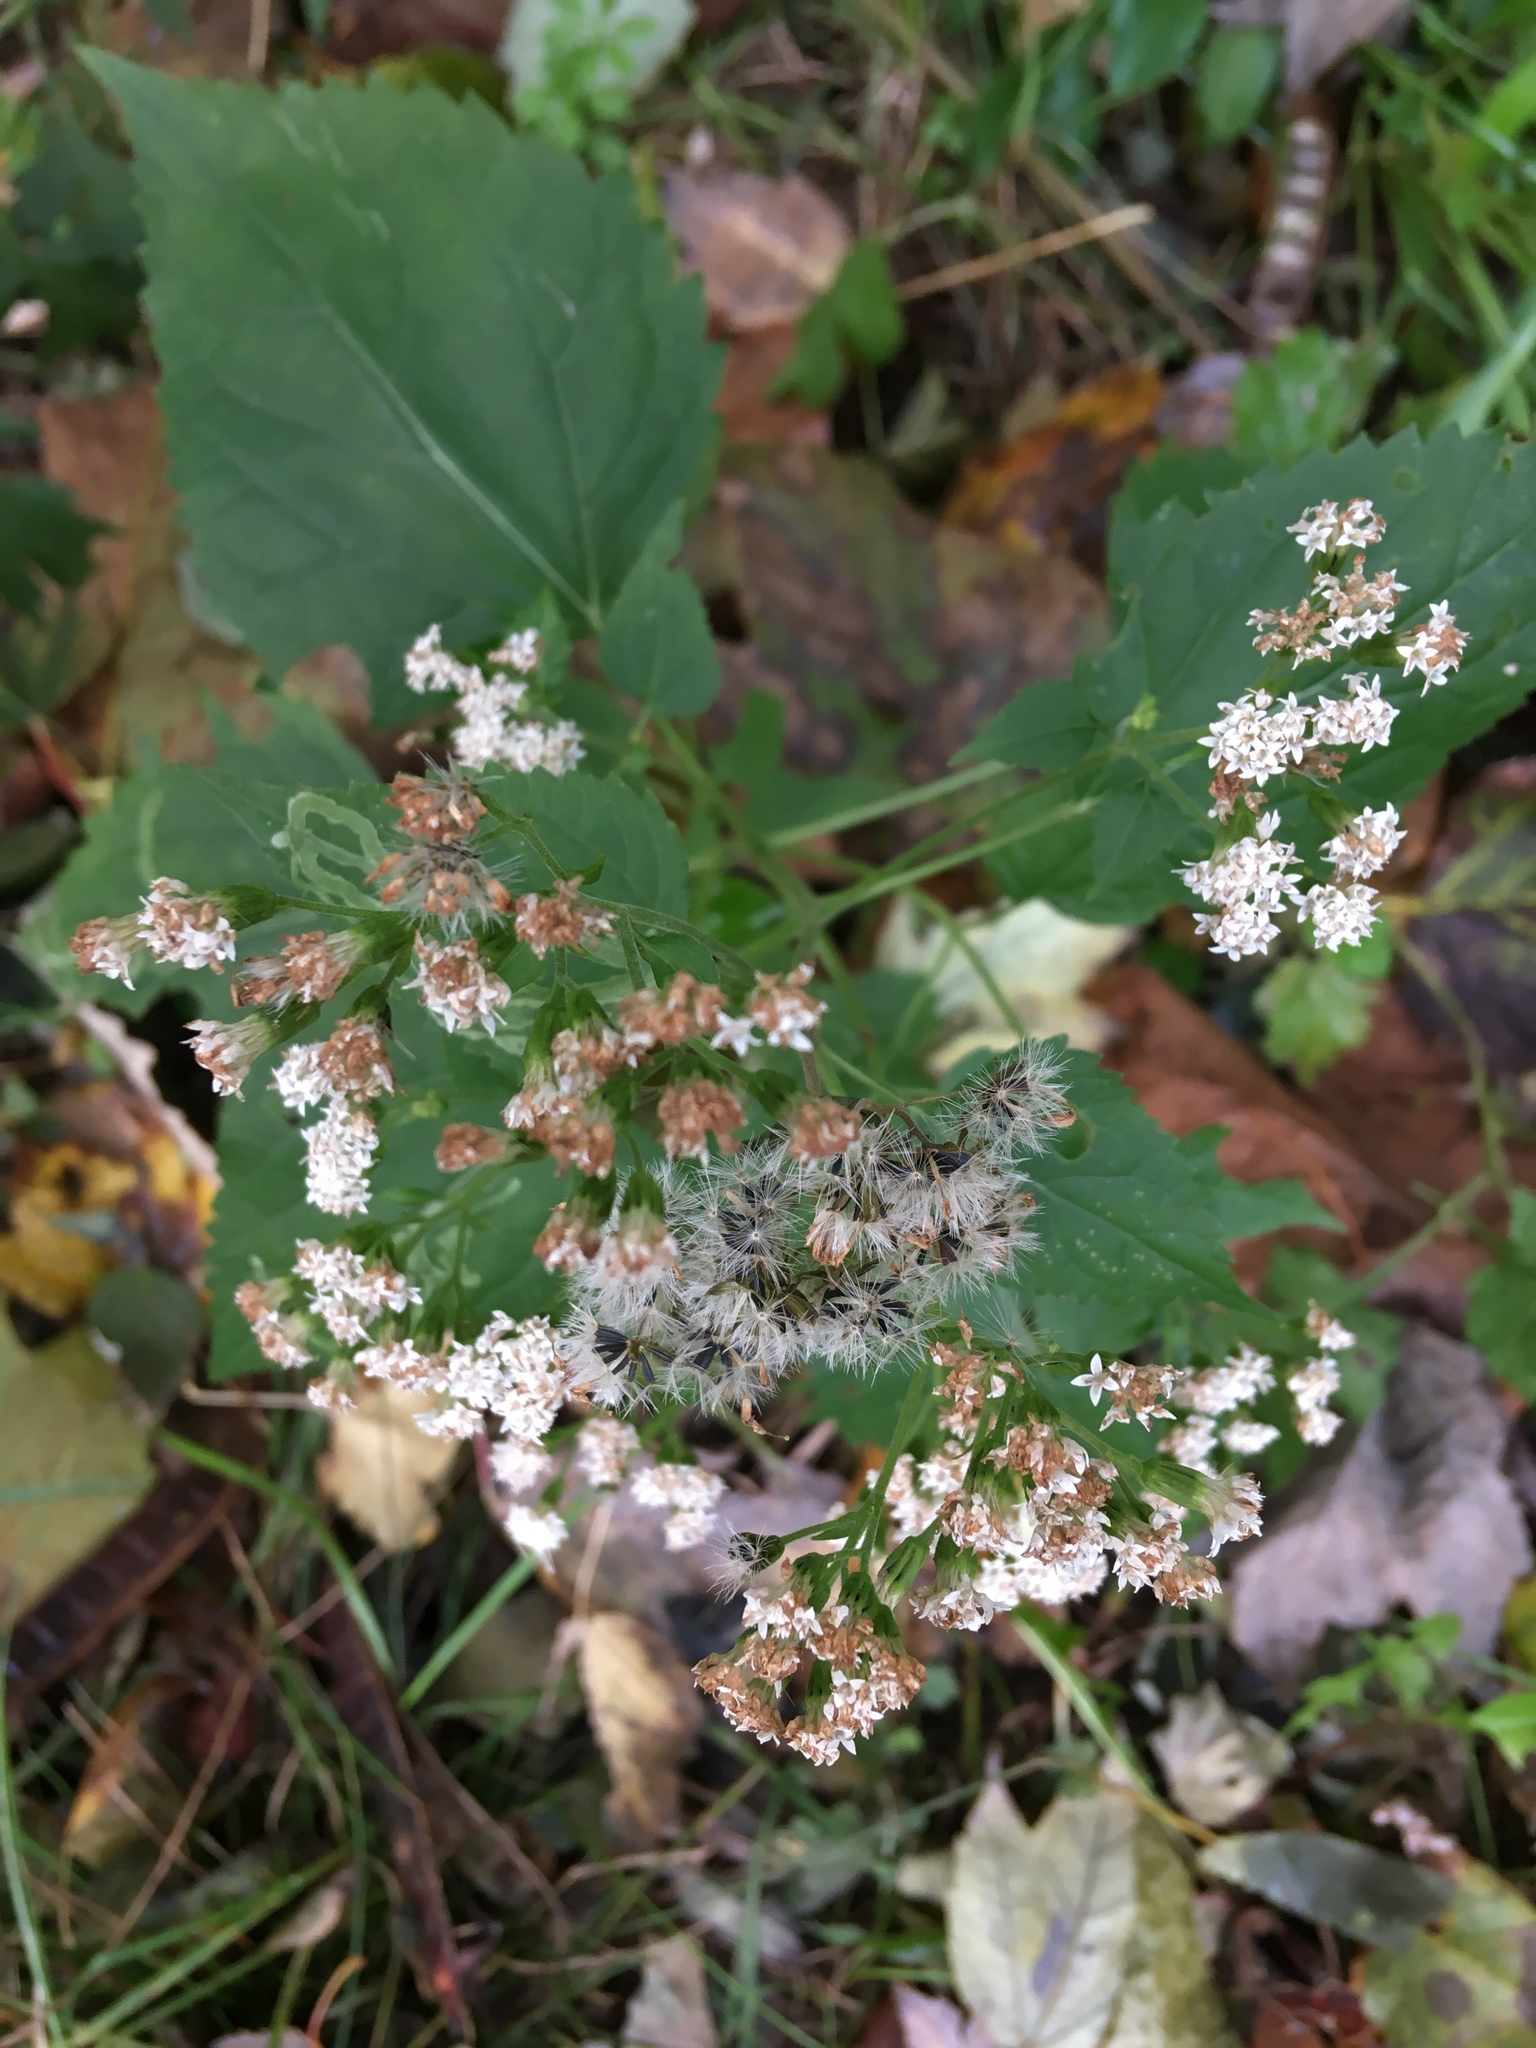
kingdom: Plantae
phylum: Tracheophyta
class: Magnoliopsida
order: Asterales
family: Asteraceae
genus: Ageratina
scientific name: Ageratina altissima
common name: White snakeroot
